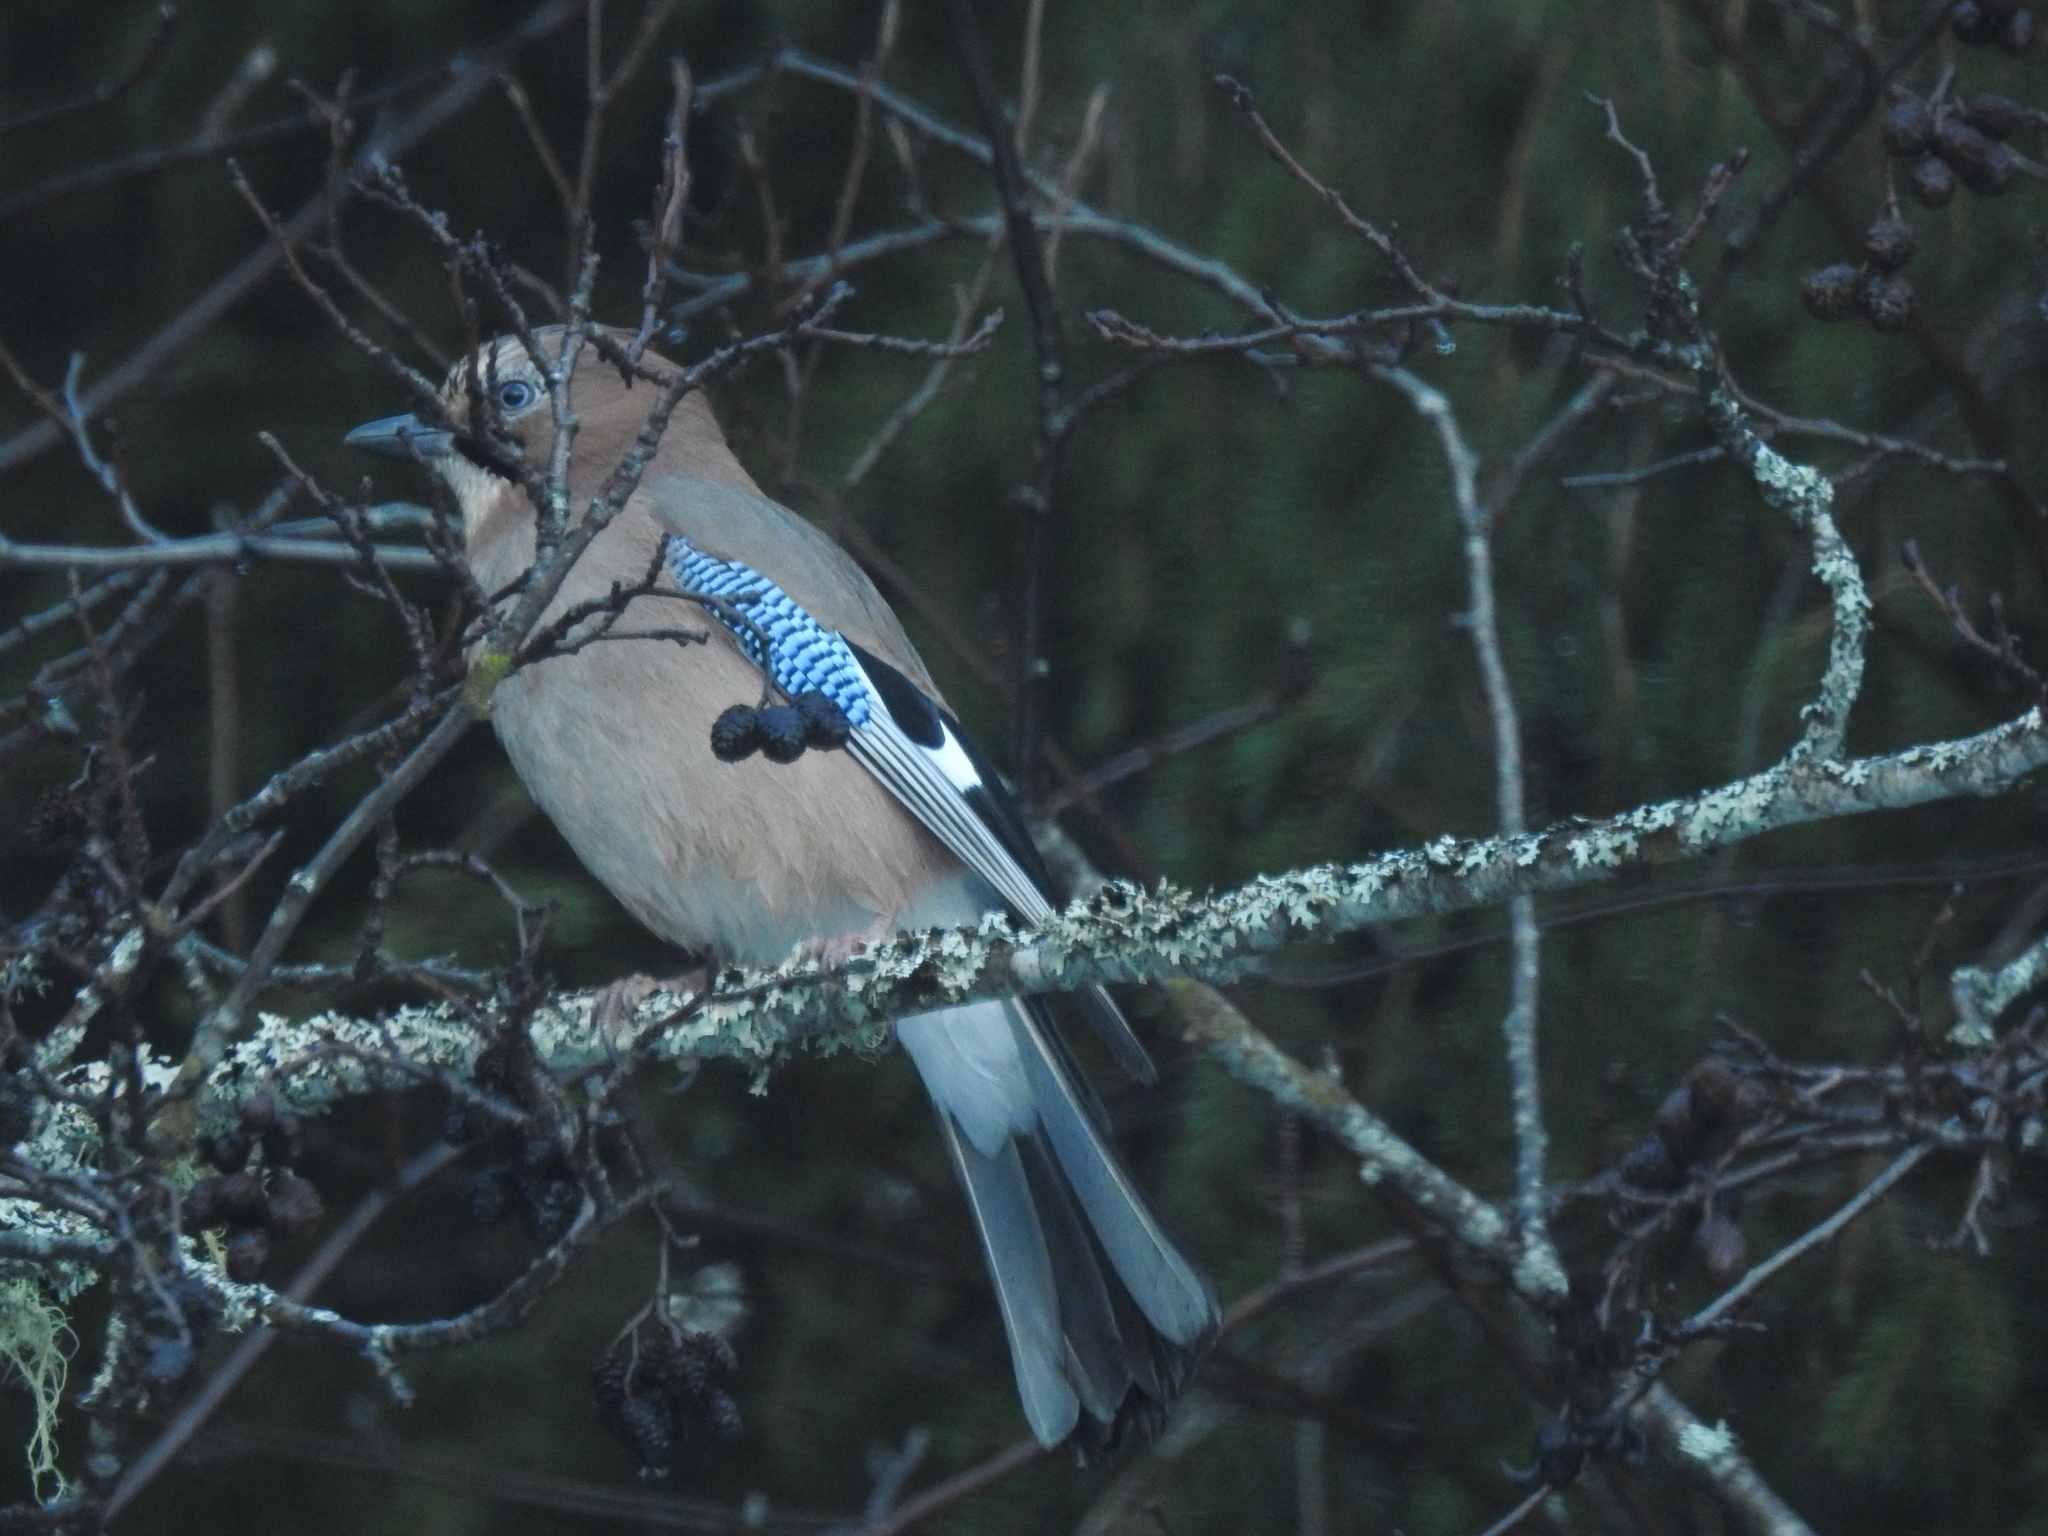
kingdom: Animalia
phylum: Chordata
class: Aves
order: Passeriformes
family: Corvidae
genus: Garrulus
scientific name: Garrulus glandarius
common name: Eurasian jay
